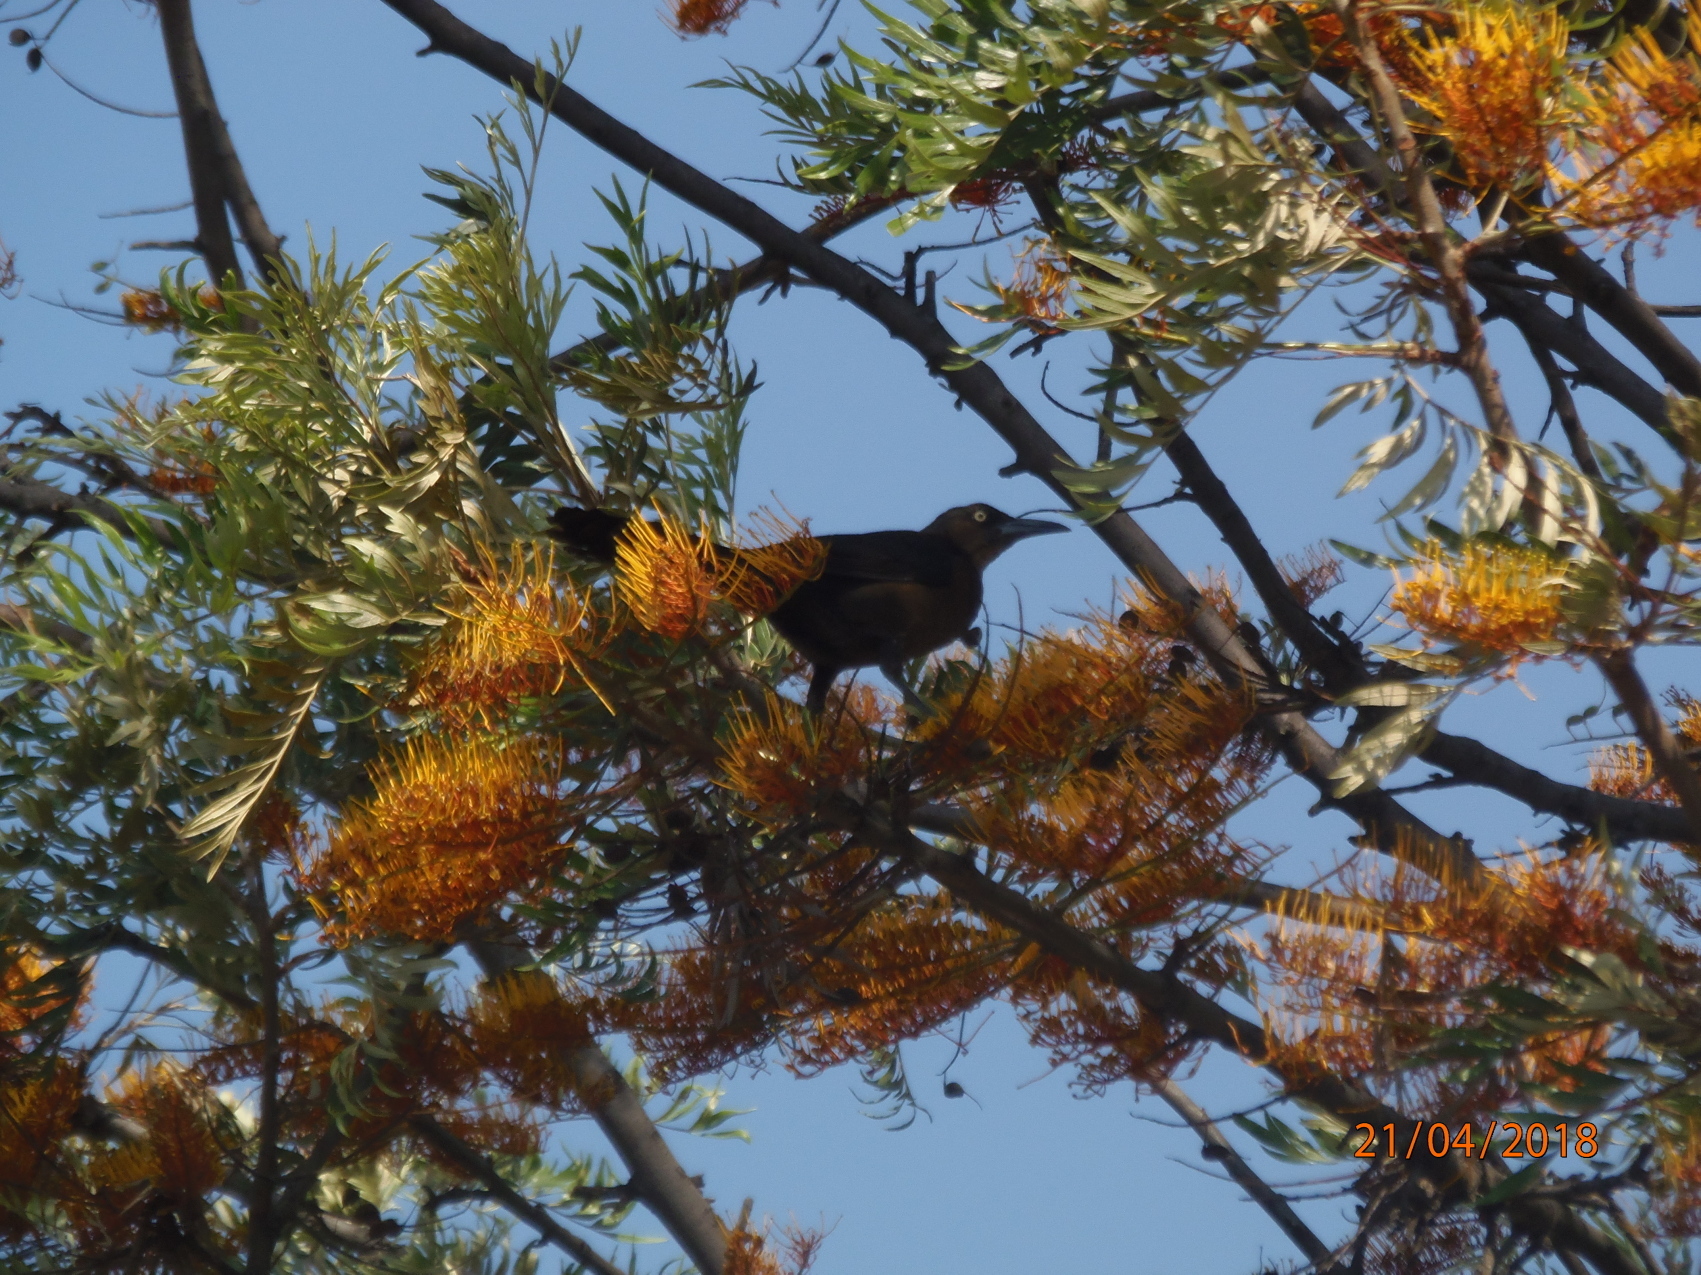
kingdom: Animalia
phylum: Chordata
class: Aves
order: Passeriformes
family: Icteridae
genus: Quiscalus
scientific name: Quiscalus mexicanus
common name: Great-tailed grackle
